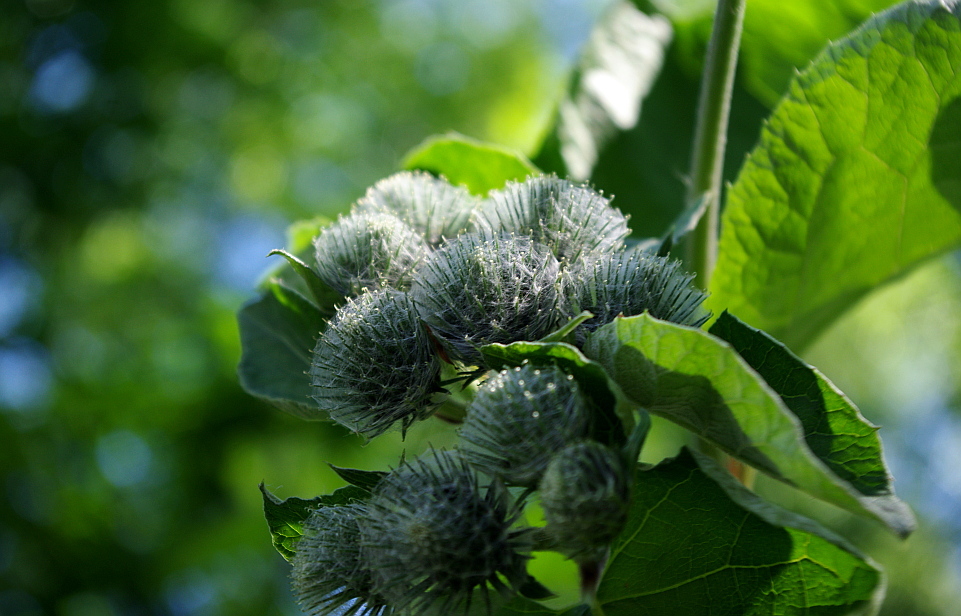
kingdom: Plantae
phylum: Tracheophyta
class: Magnoliopsida
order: Asterales
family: Asteraceae
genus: Arctium
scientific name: Arctium tomentosum
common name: Woolly burdock
